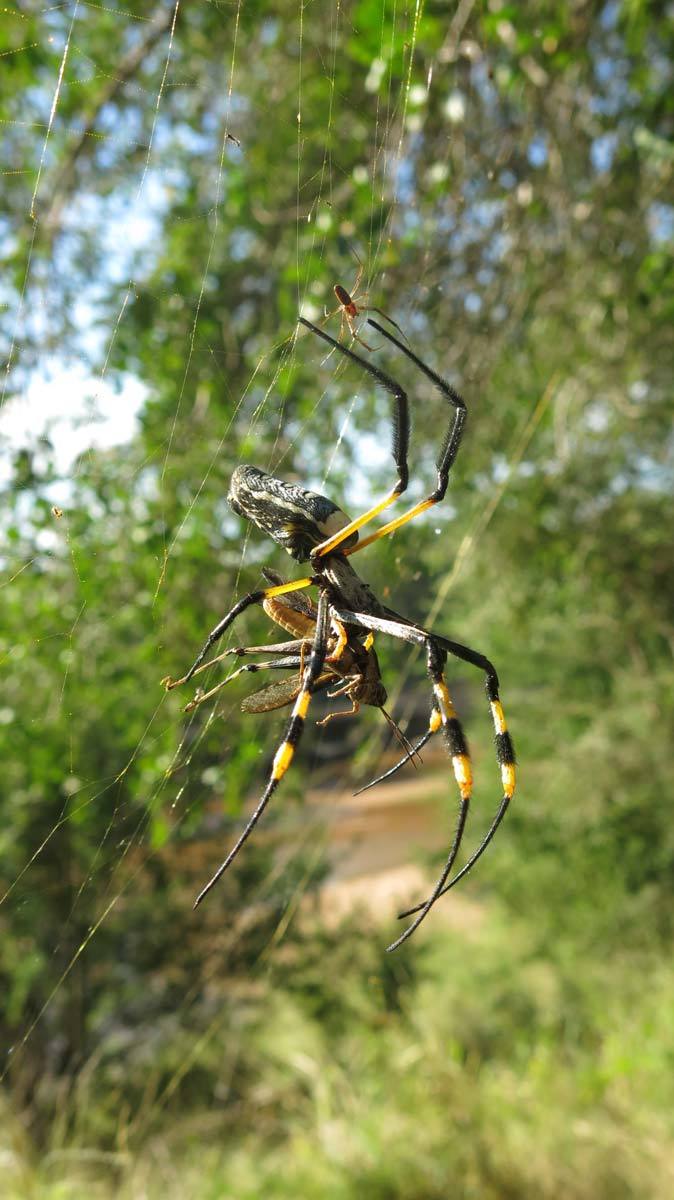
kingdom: Animalia
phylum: Arthropoda
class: Arachnida
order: Araneae
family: Araneidae
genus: Trichonephila
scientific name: Trichonephila senegalensis
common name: Banded golden orb weaver
